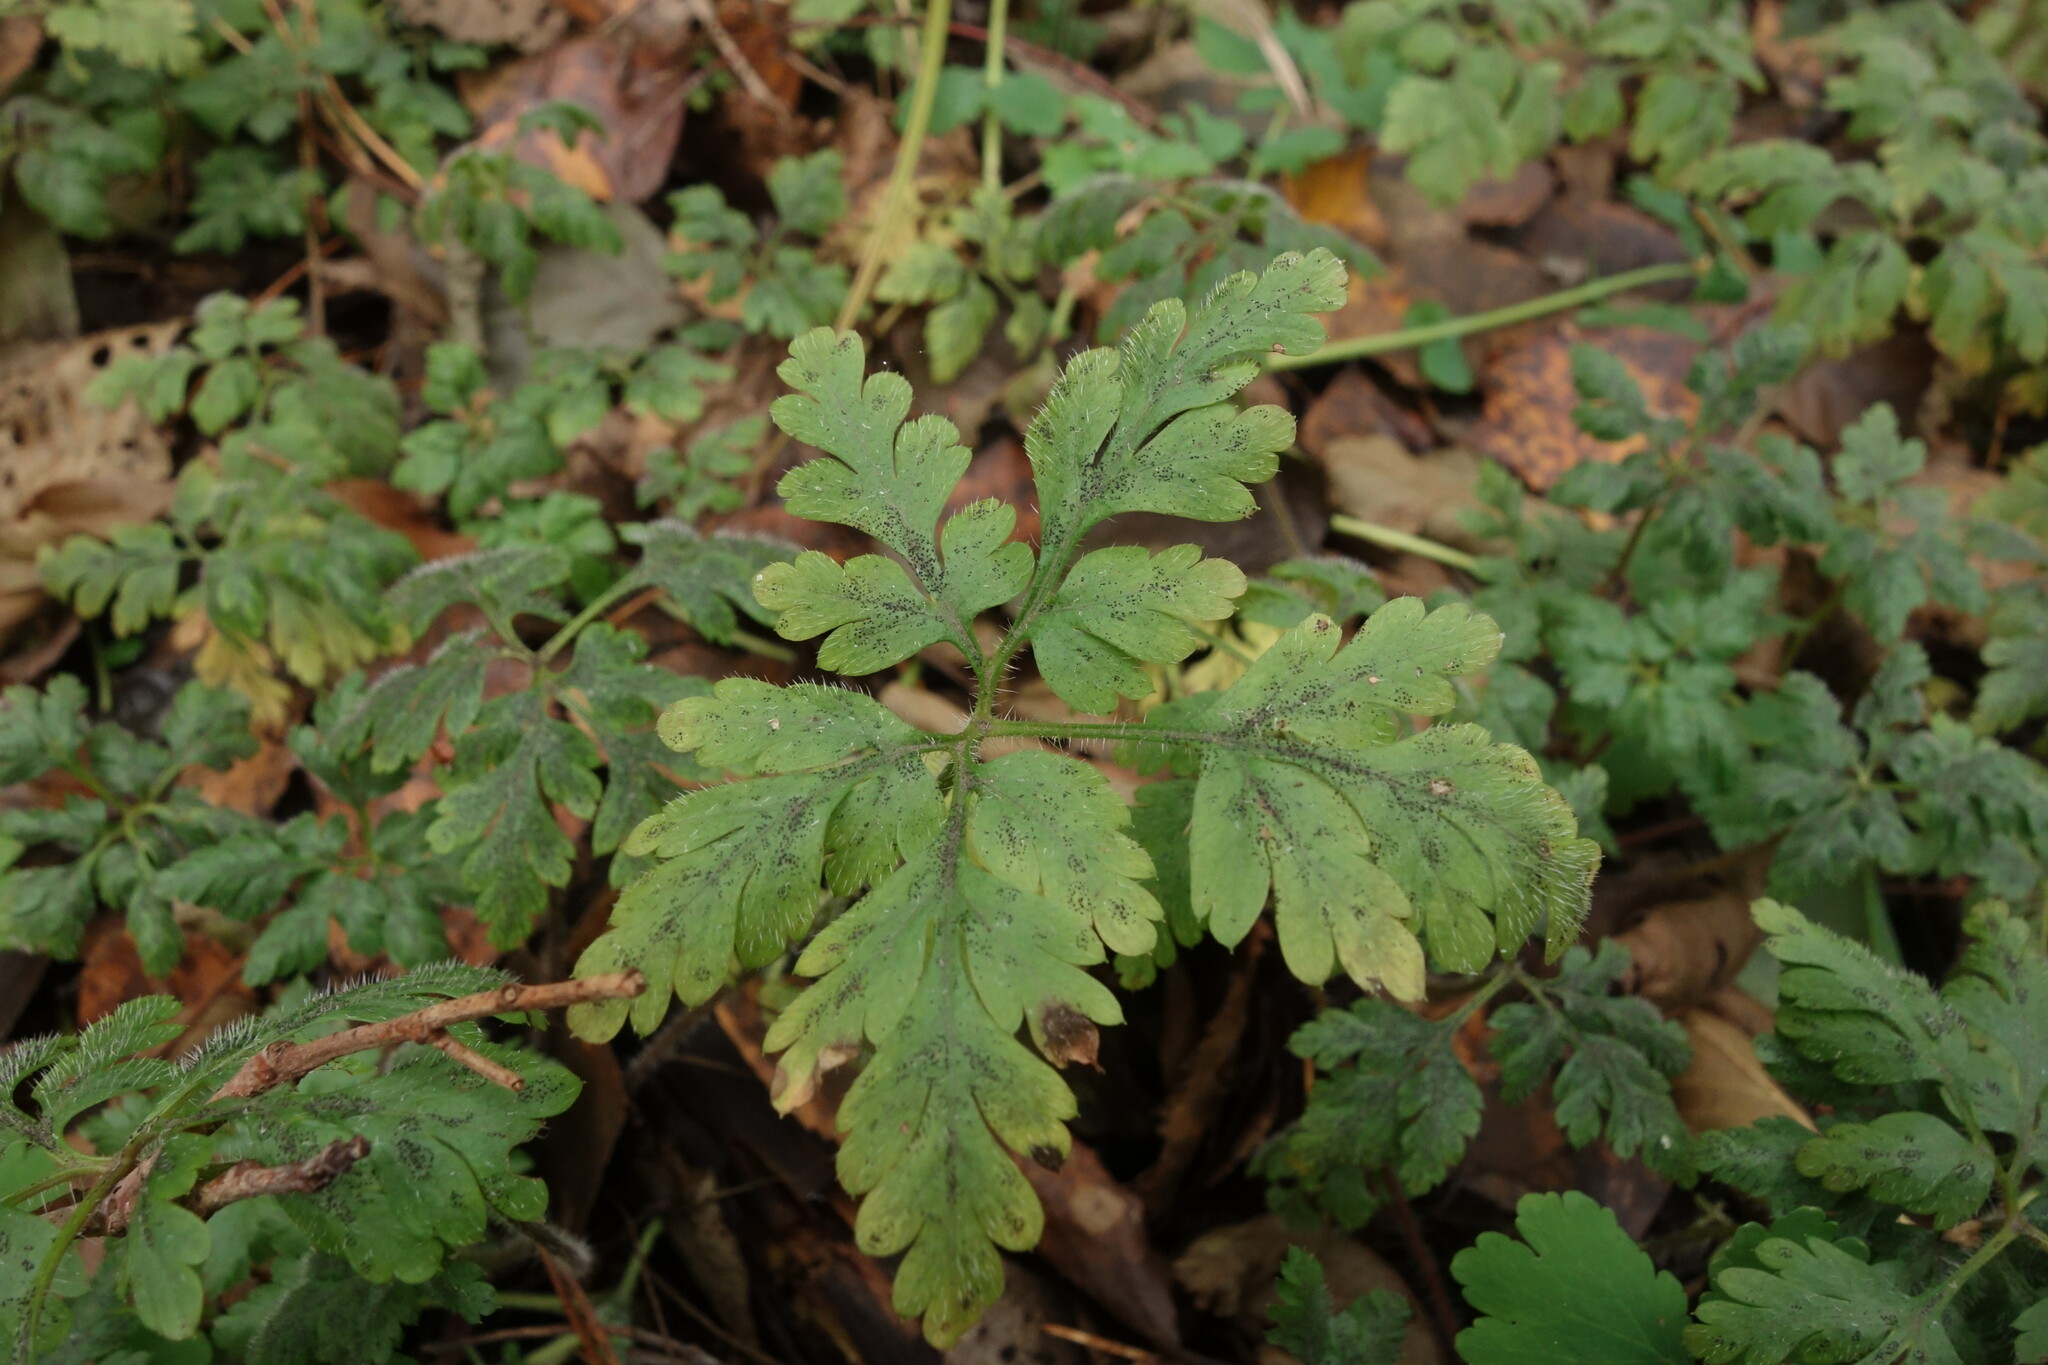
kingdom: Plantae
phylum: Tracheophyta
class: Magnoliopsida
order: Geraniales
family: Geraniaceae
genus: Geranium
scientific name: Geranium robertianum
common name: Herb-robert
